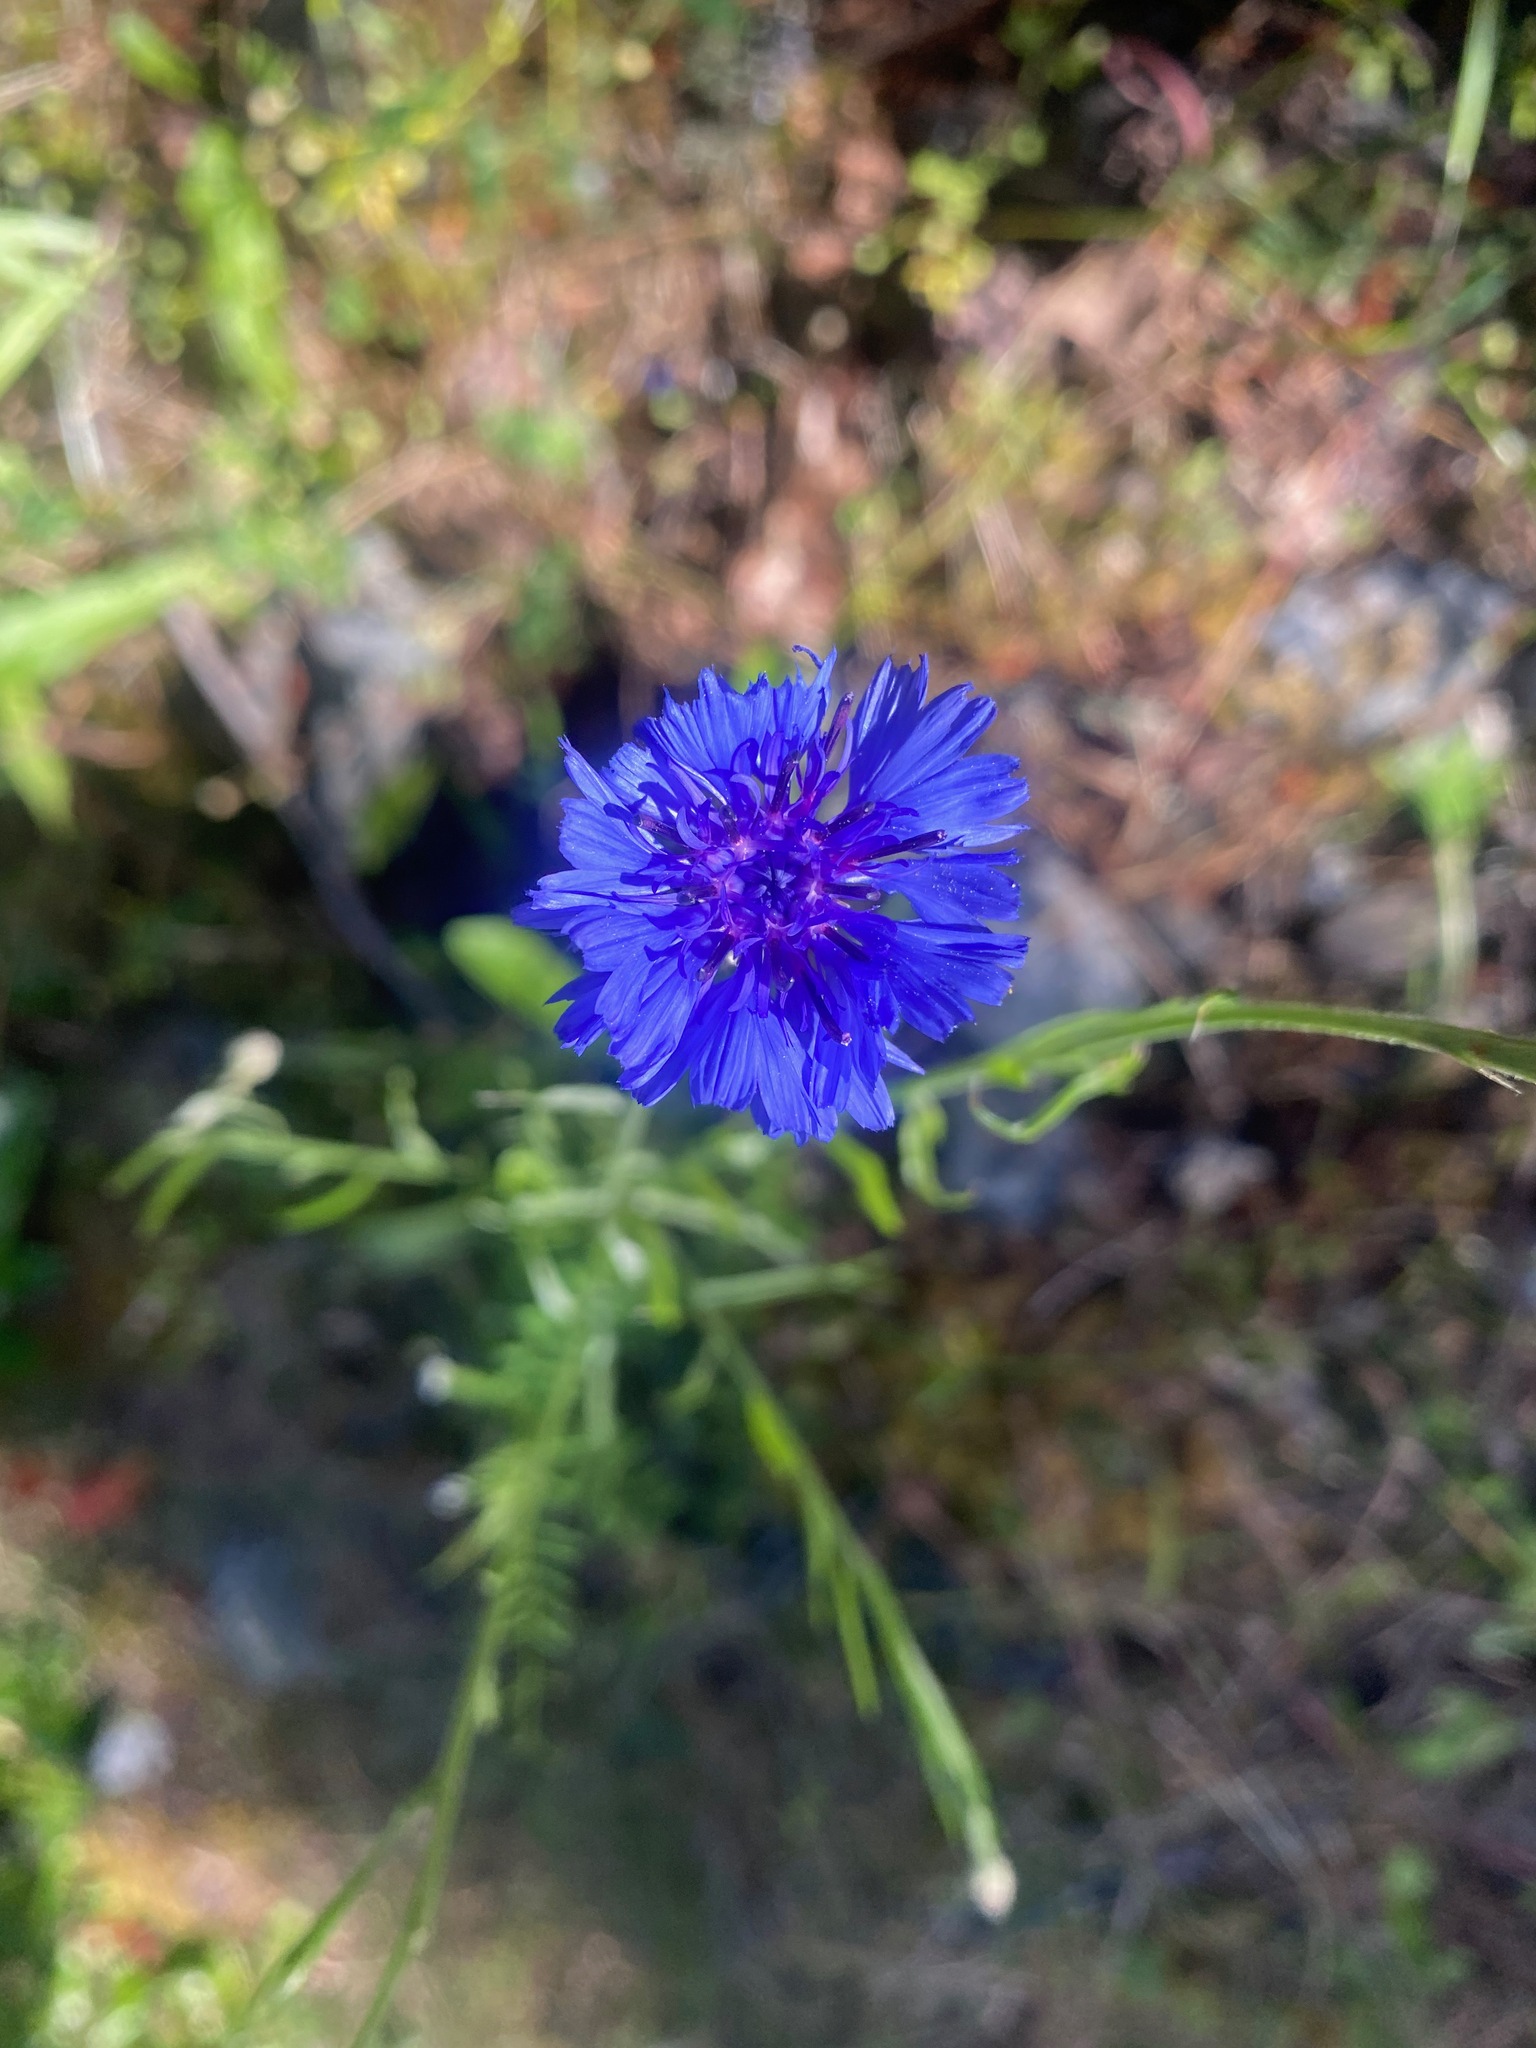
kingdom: Plantae
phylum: Tracheophyta
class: Magnoliopsida
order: Asterales
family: Asteraceae
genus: Centaurea
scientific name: Centaurea cyanus
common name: Cornflower
